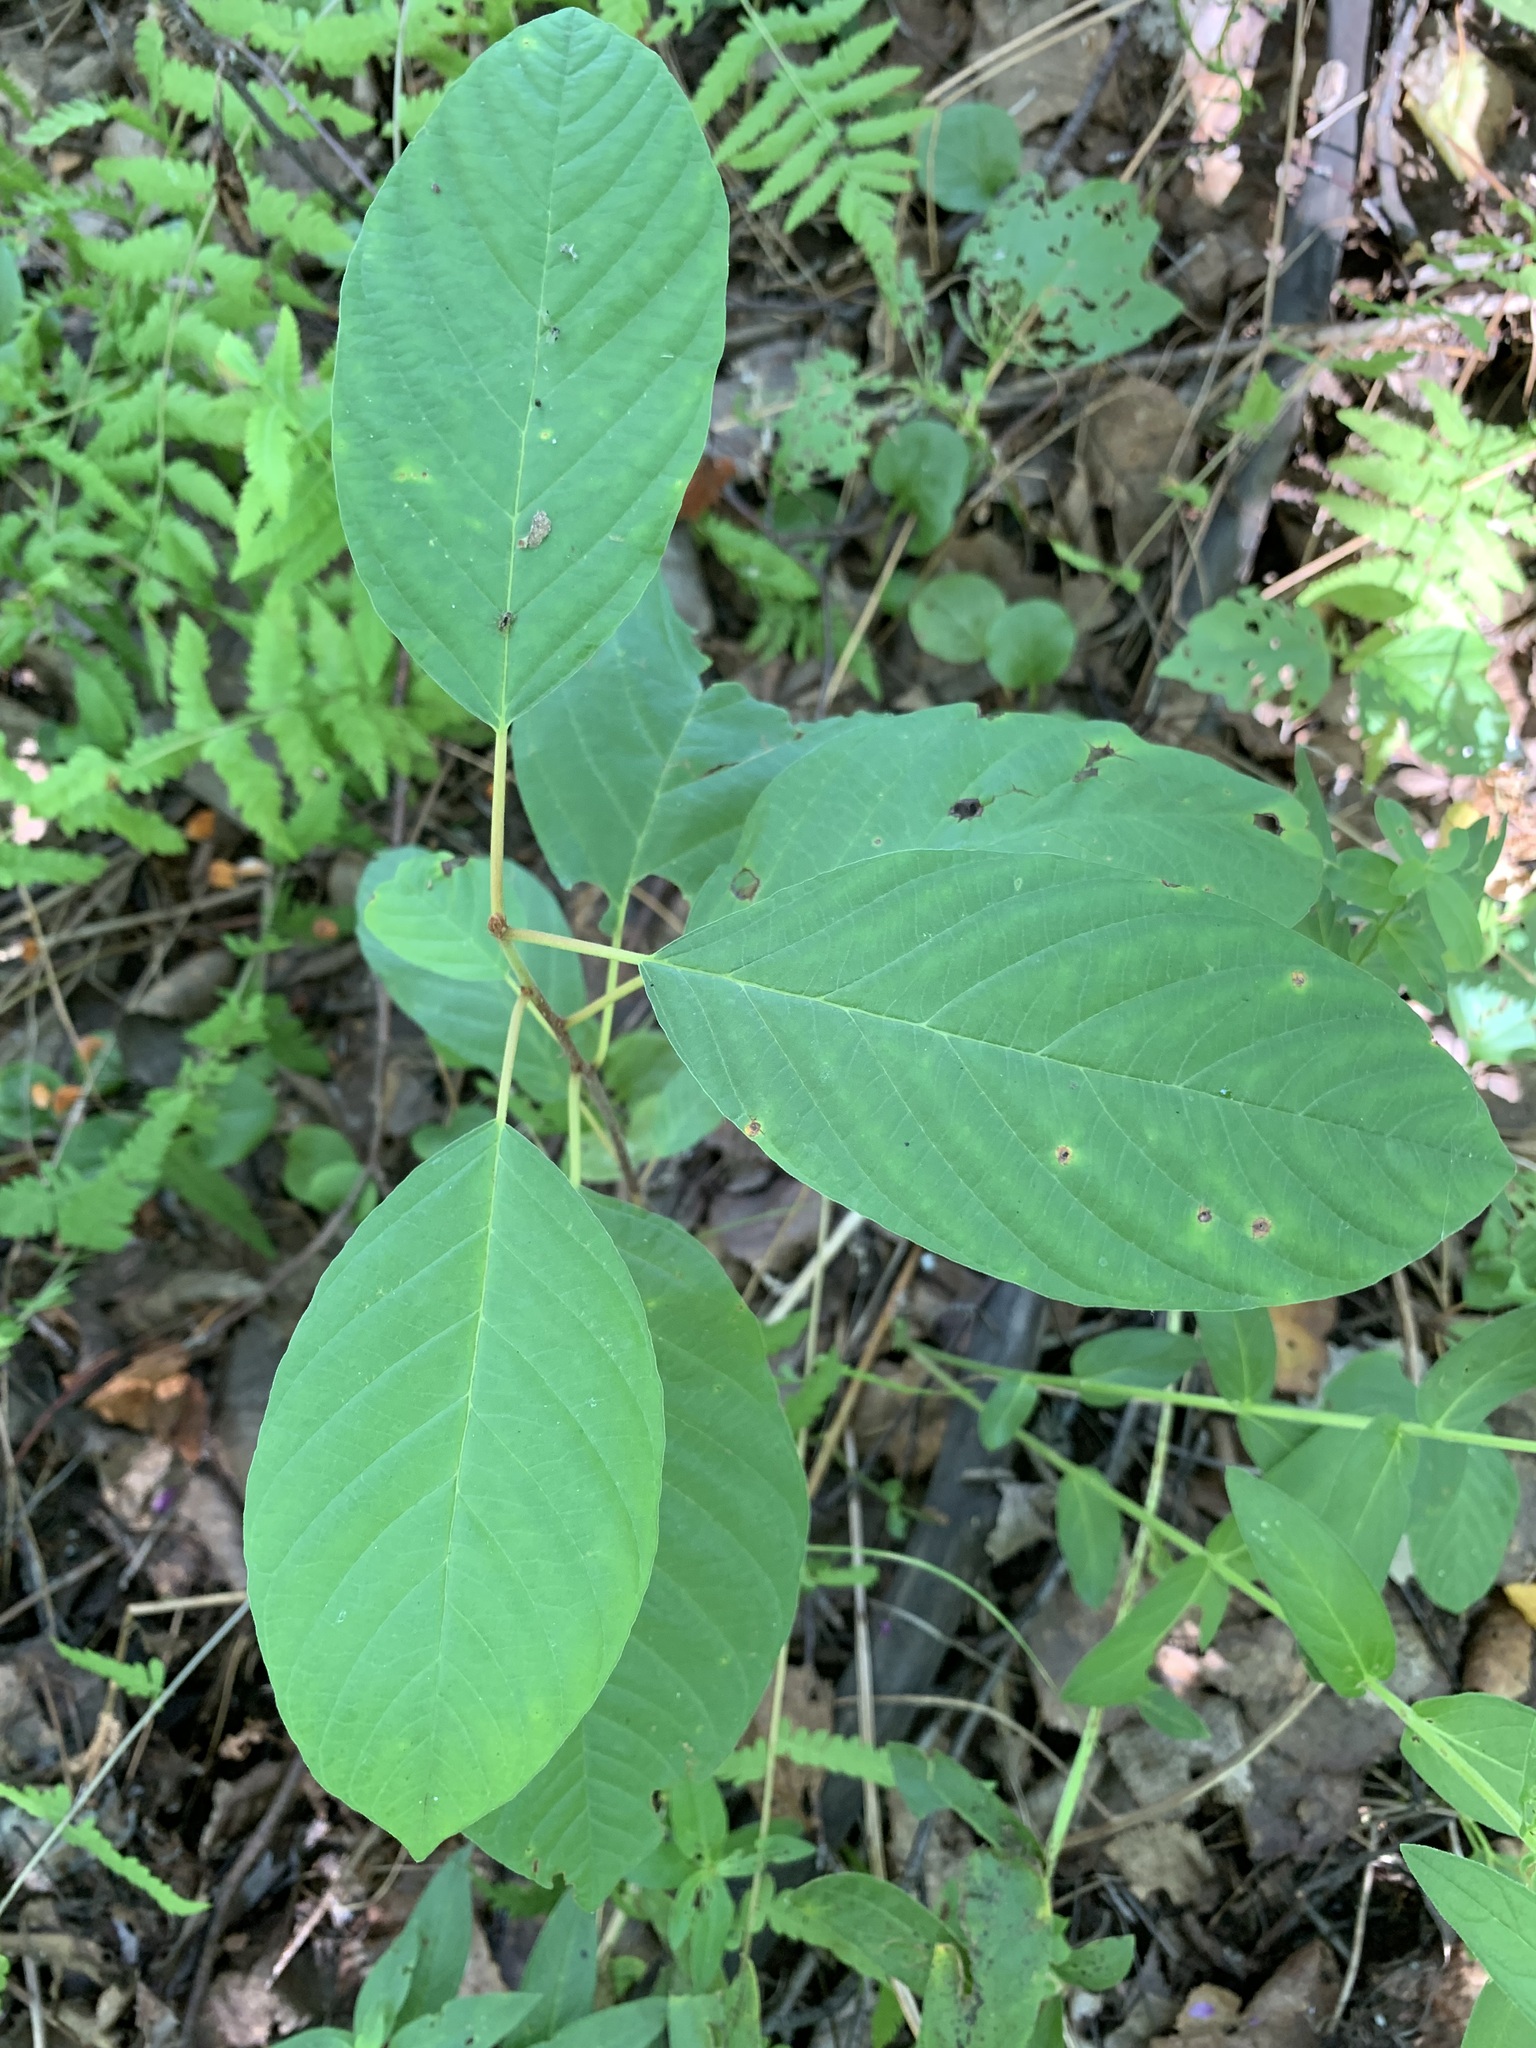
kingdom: Plantae
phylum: Tracheophyta
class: Magnoliopsida
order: Rosales
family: Rhamnaceae
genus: Frangula
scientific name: Frangula alnus
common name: Alder buckthorn
